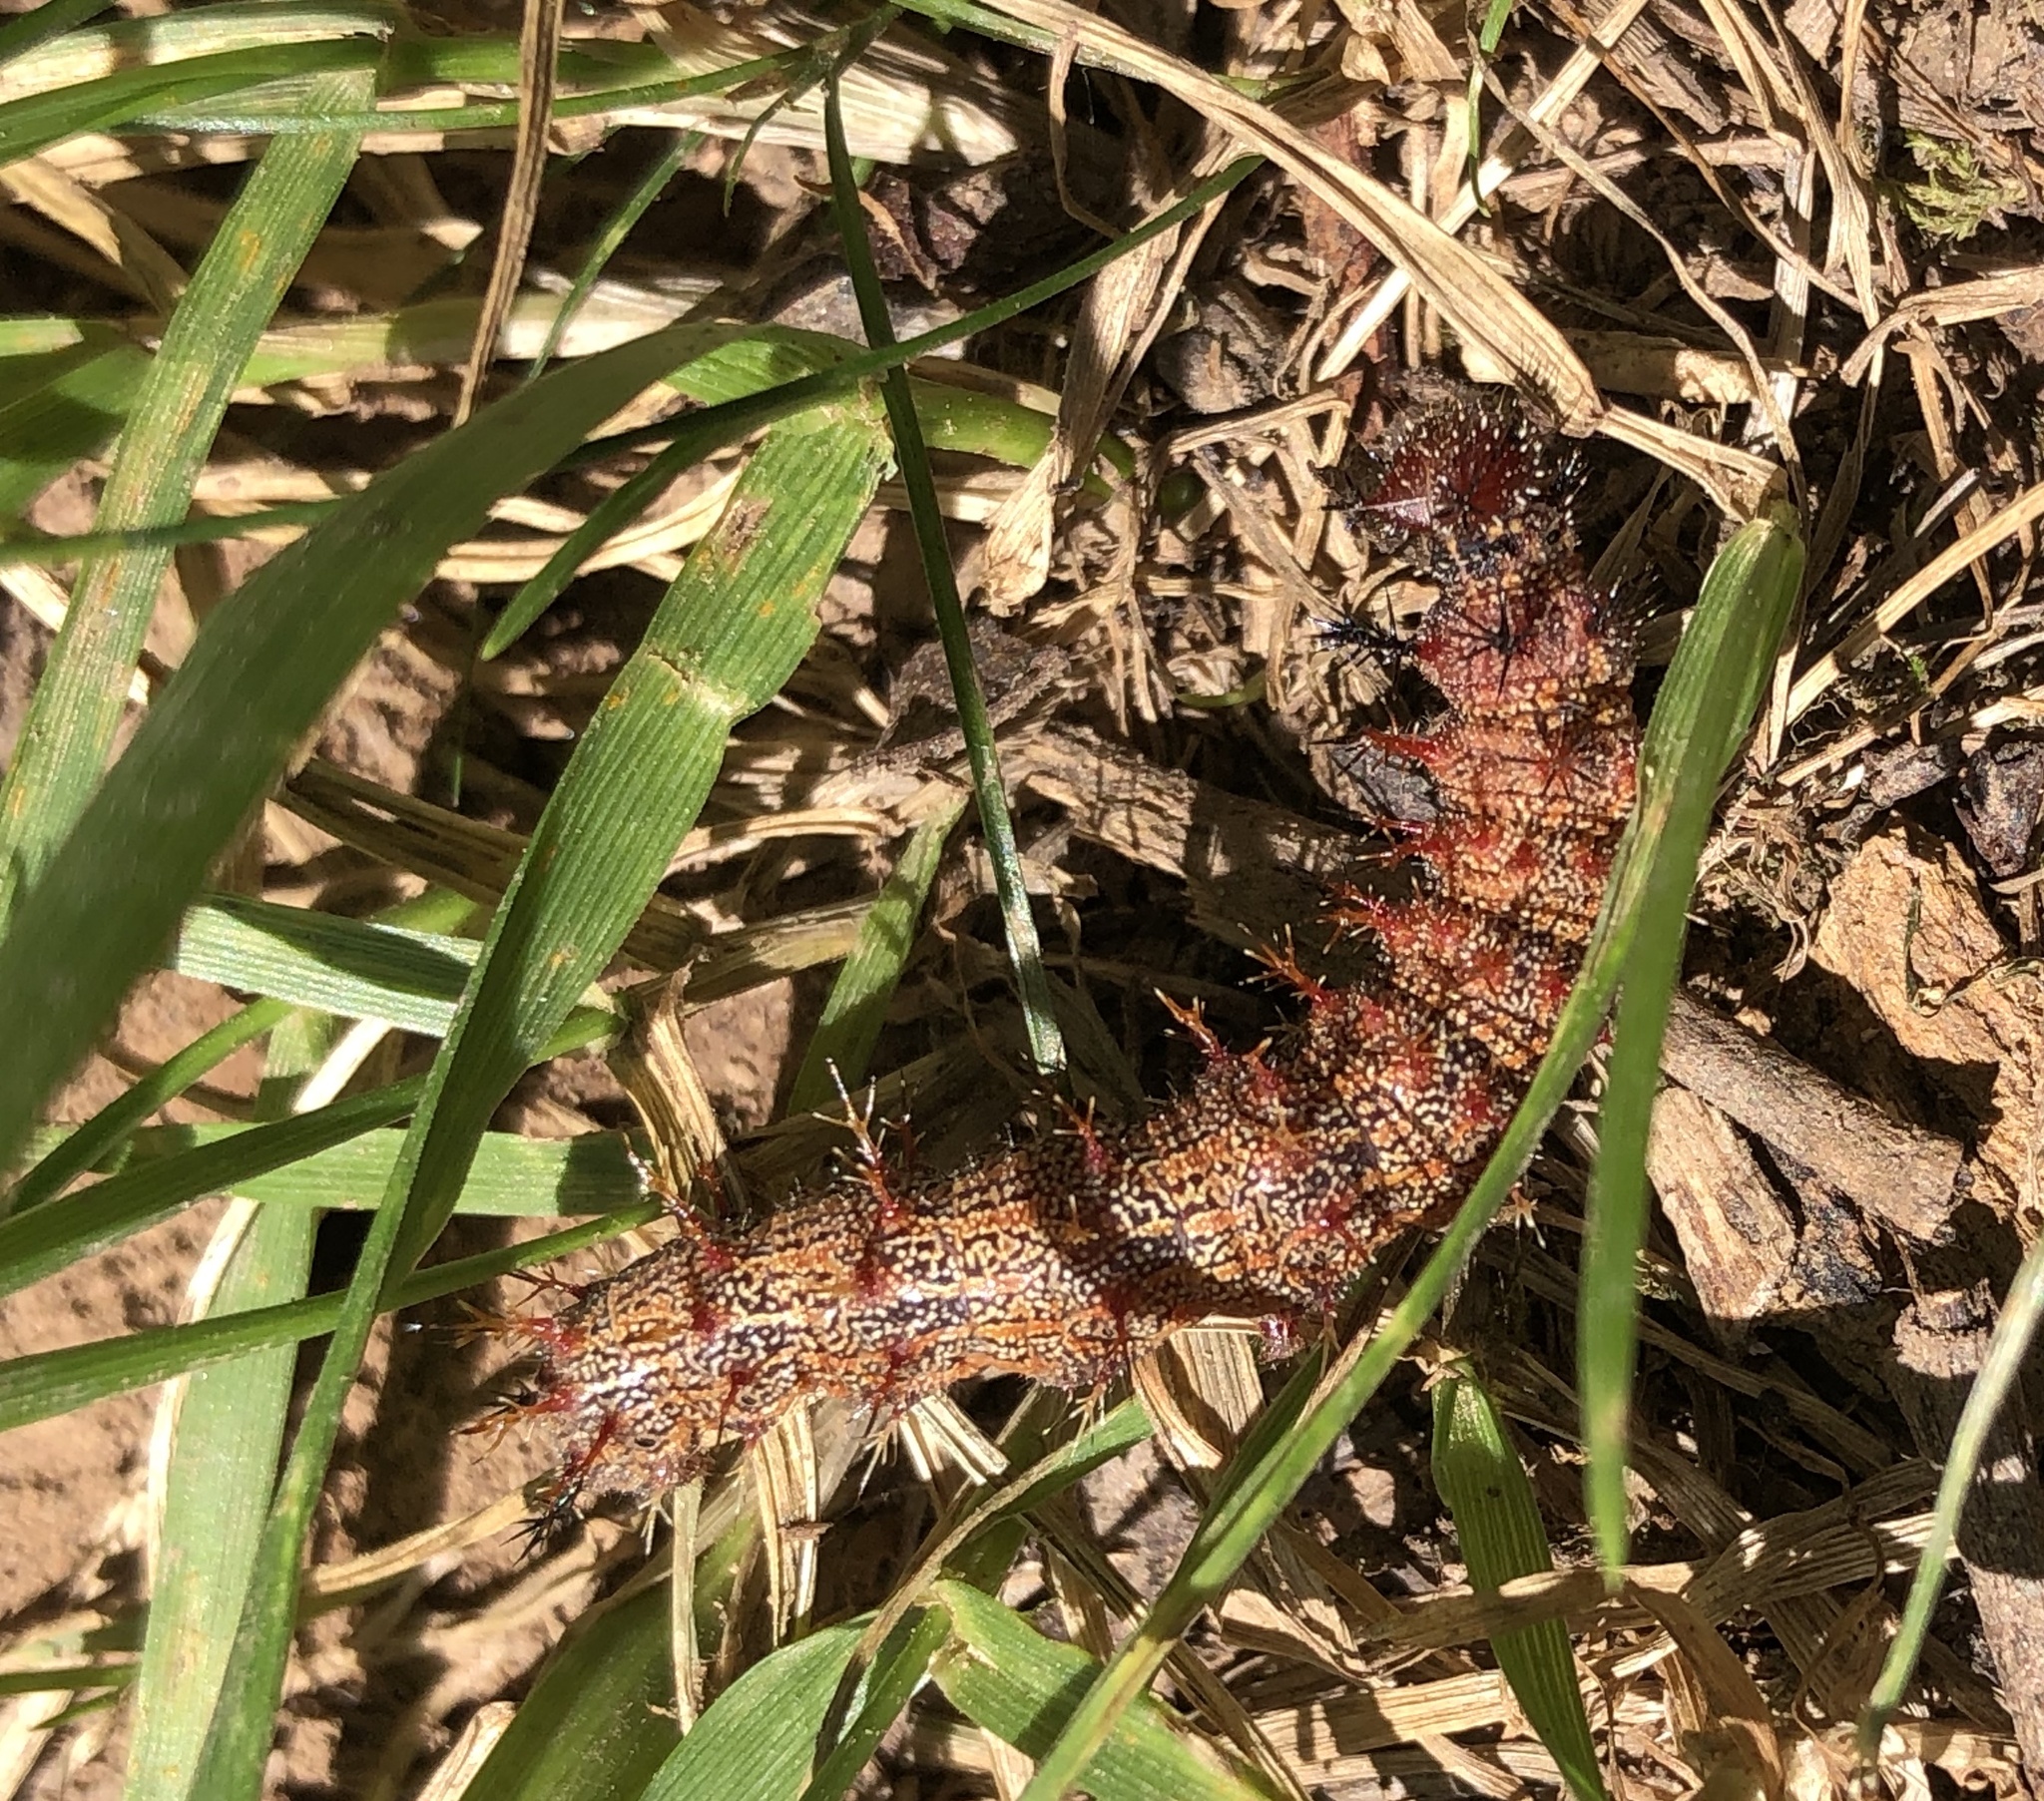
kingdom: Animalia
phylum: Arthropoda
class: Insecta
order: Lepidoptera
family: Nymphalidae
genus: Polygonia
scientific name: Polygonia interrogationis
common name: Question mark
